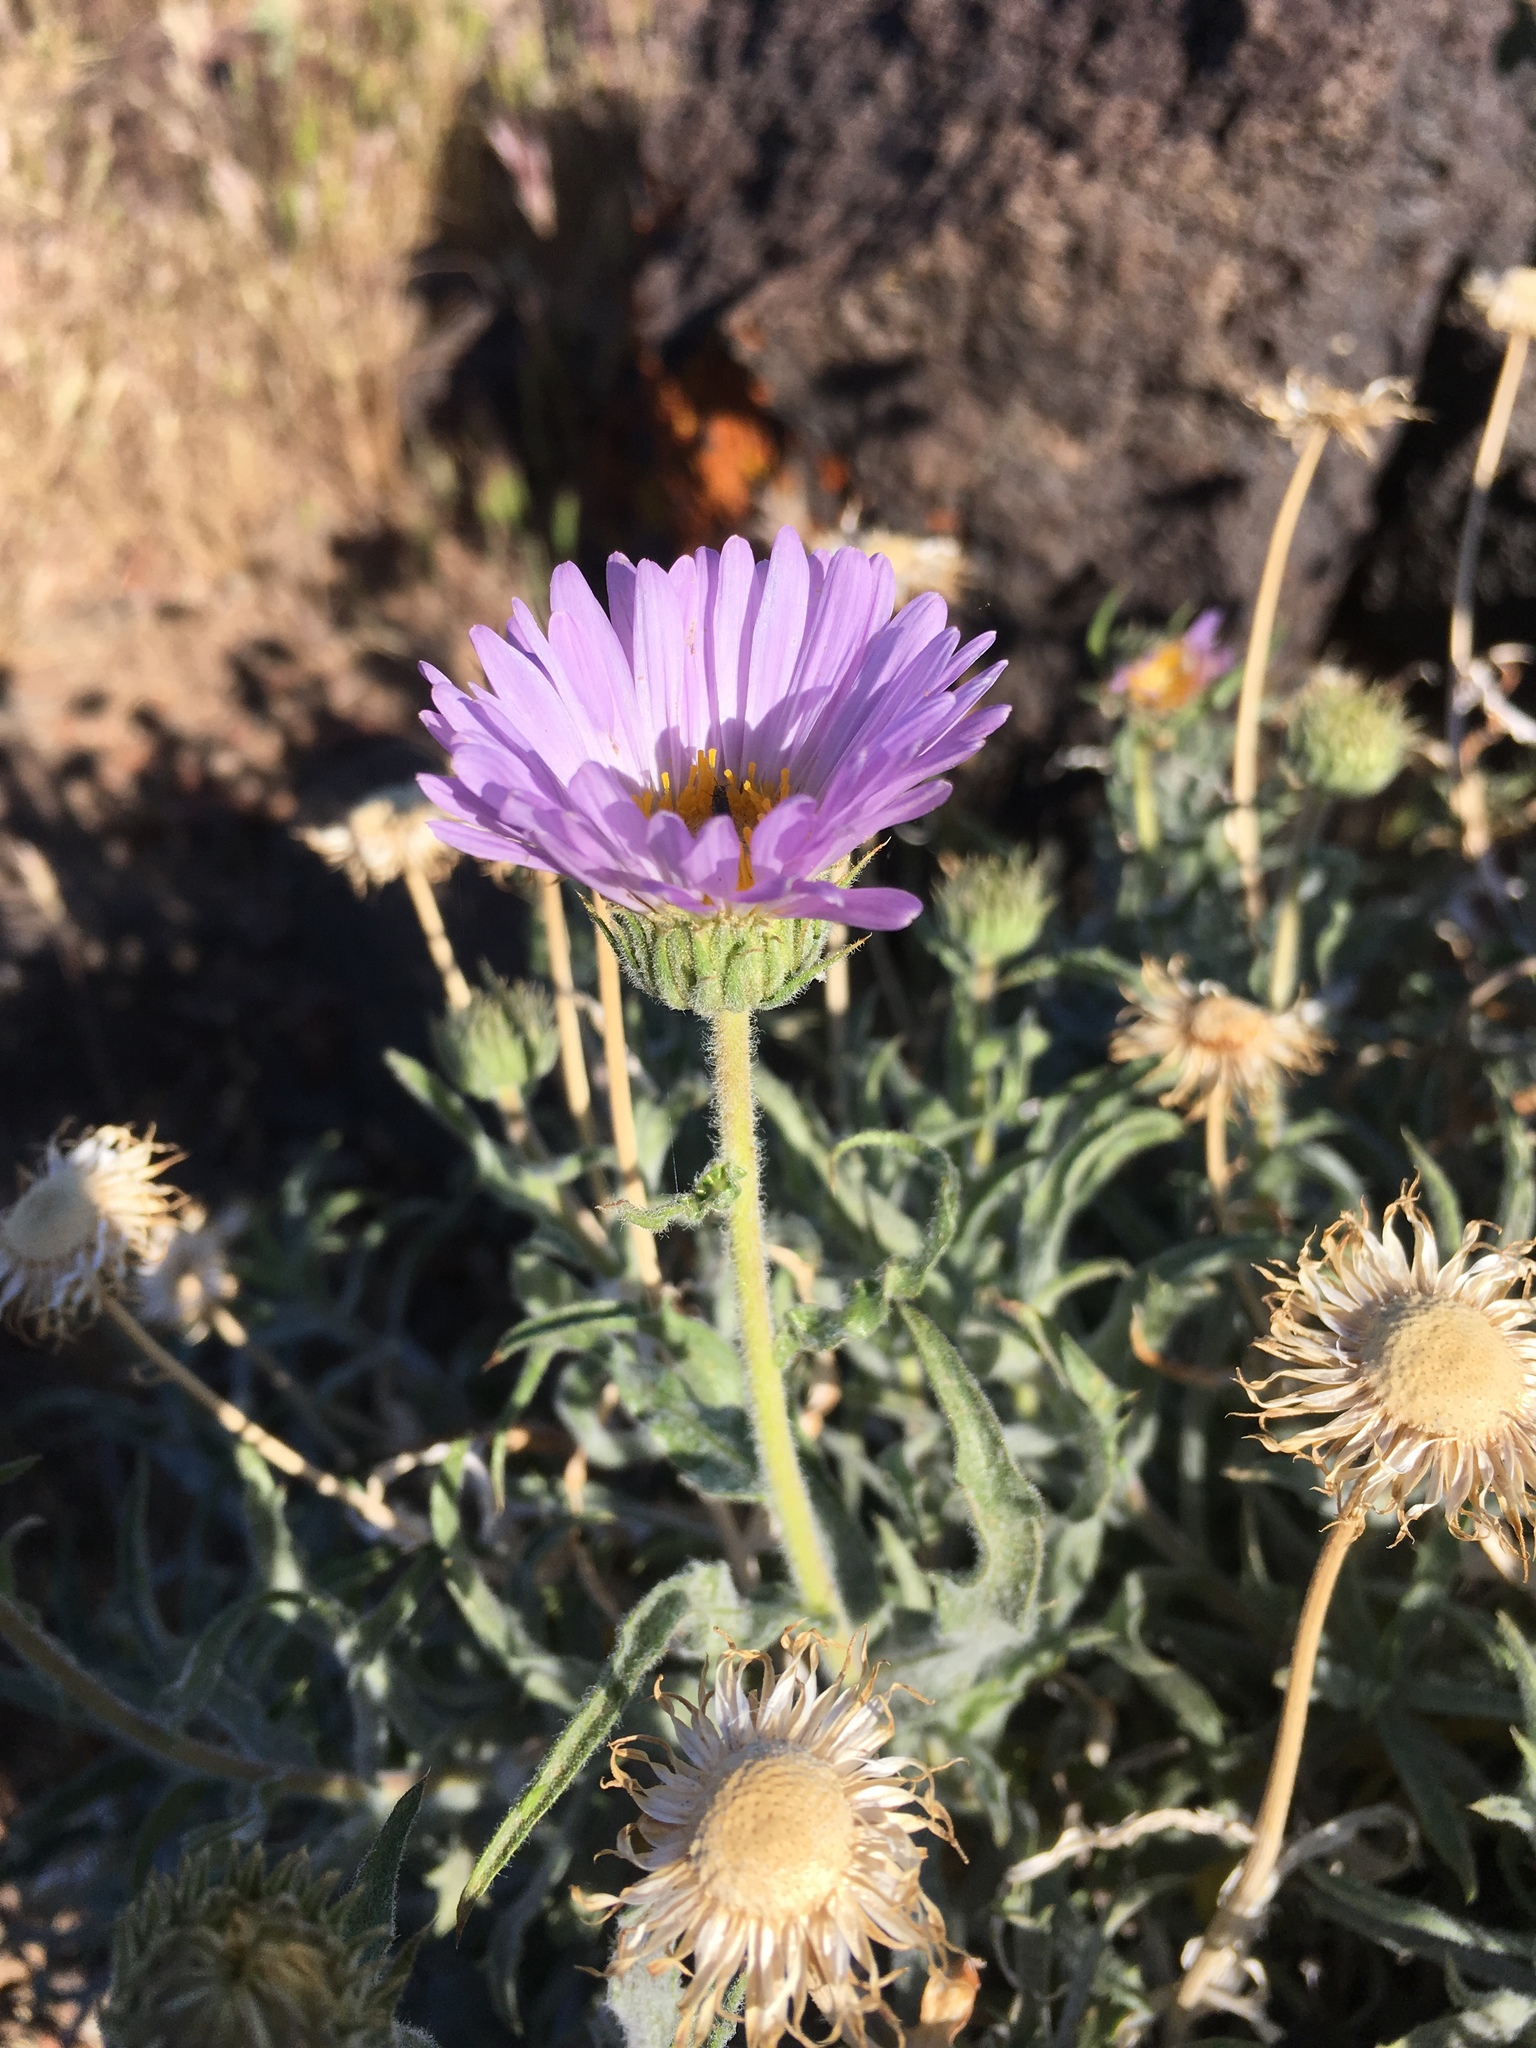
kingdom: Plantae
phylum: Tracheophyta
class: Magnoliopsida
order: Asterales
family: Asteraceae
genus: Xylorhiza
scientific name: Xylorhiza tortifolia
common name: Hurt-leaf woody-aster
